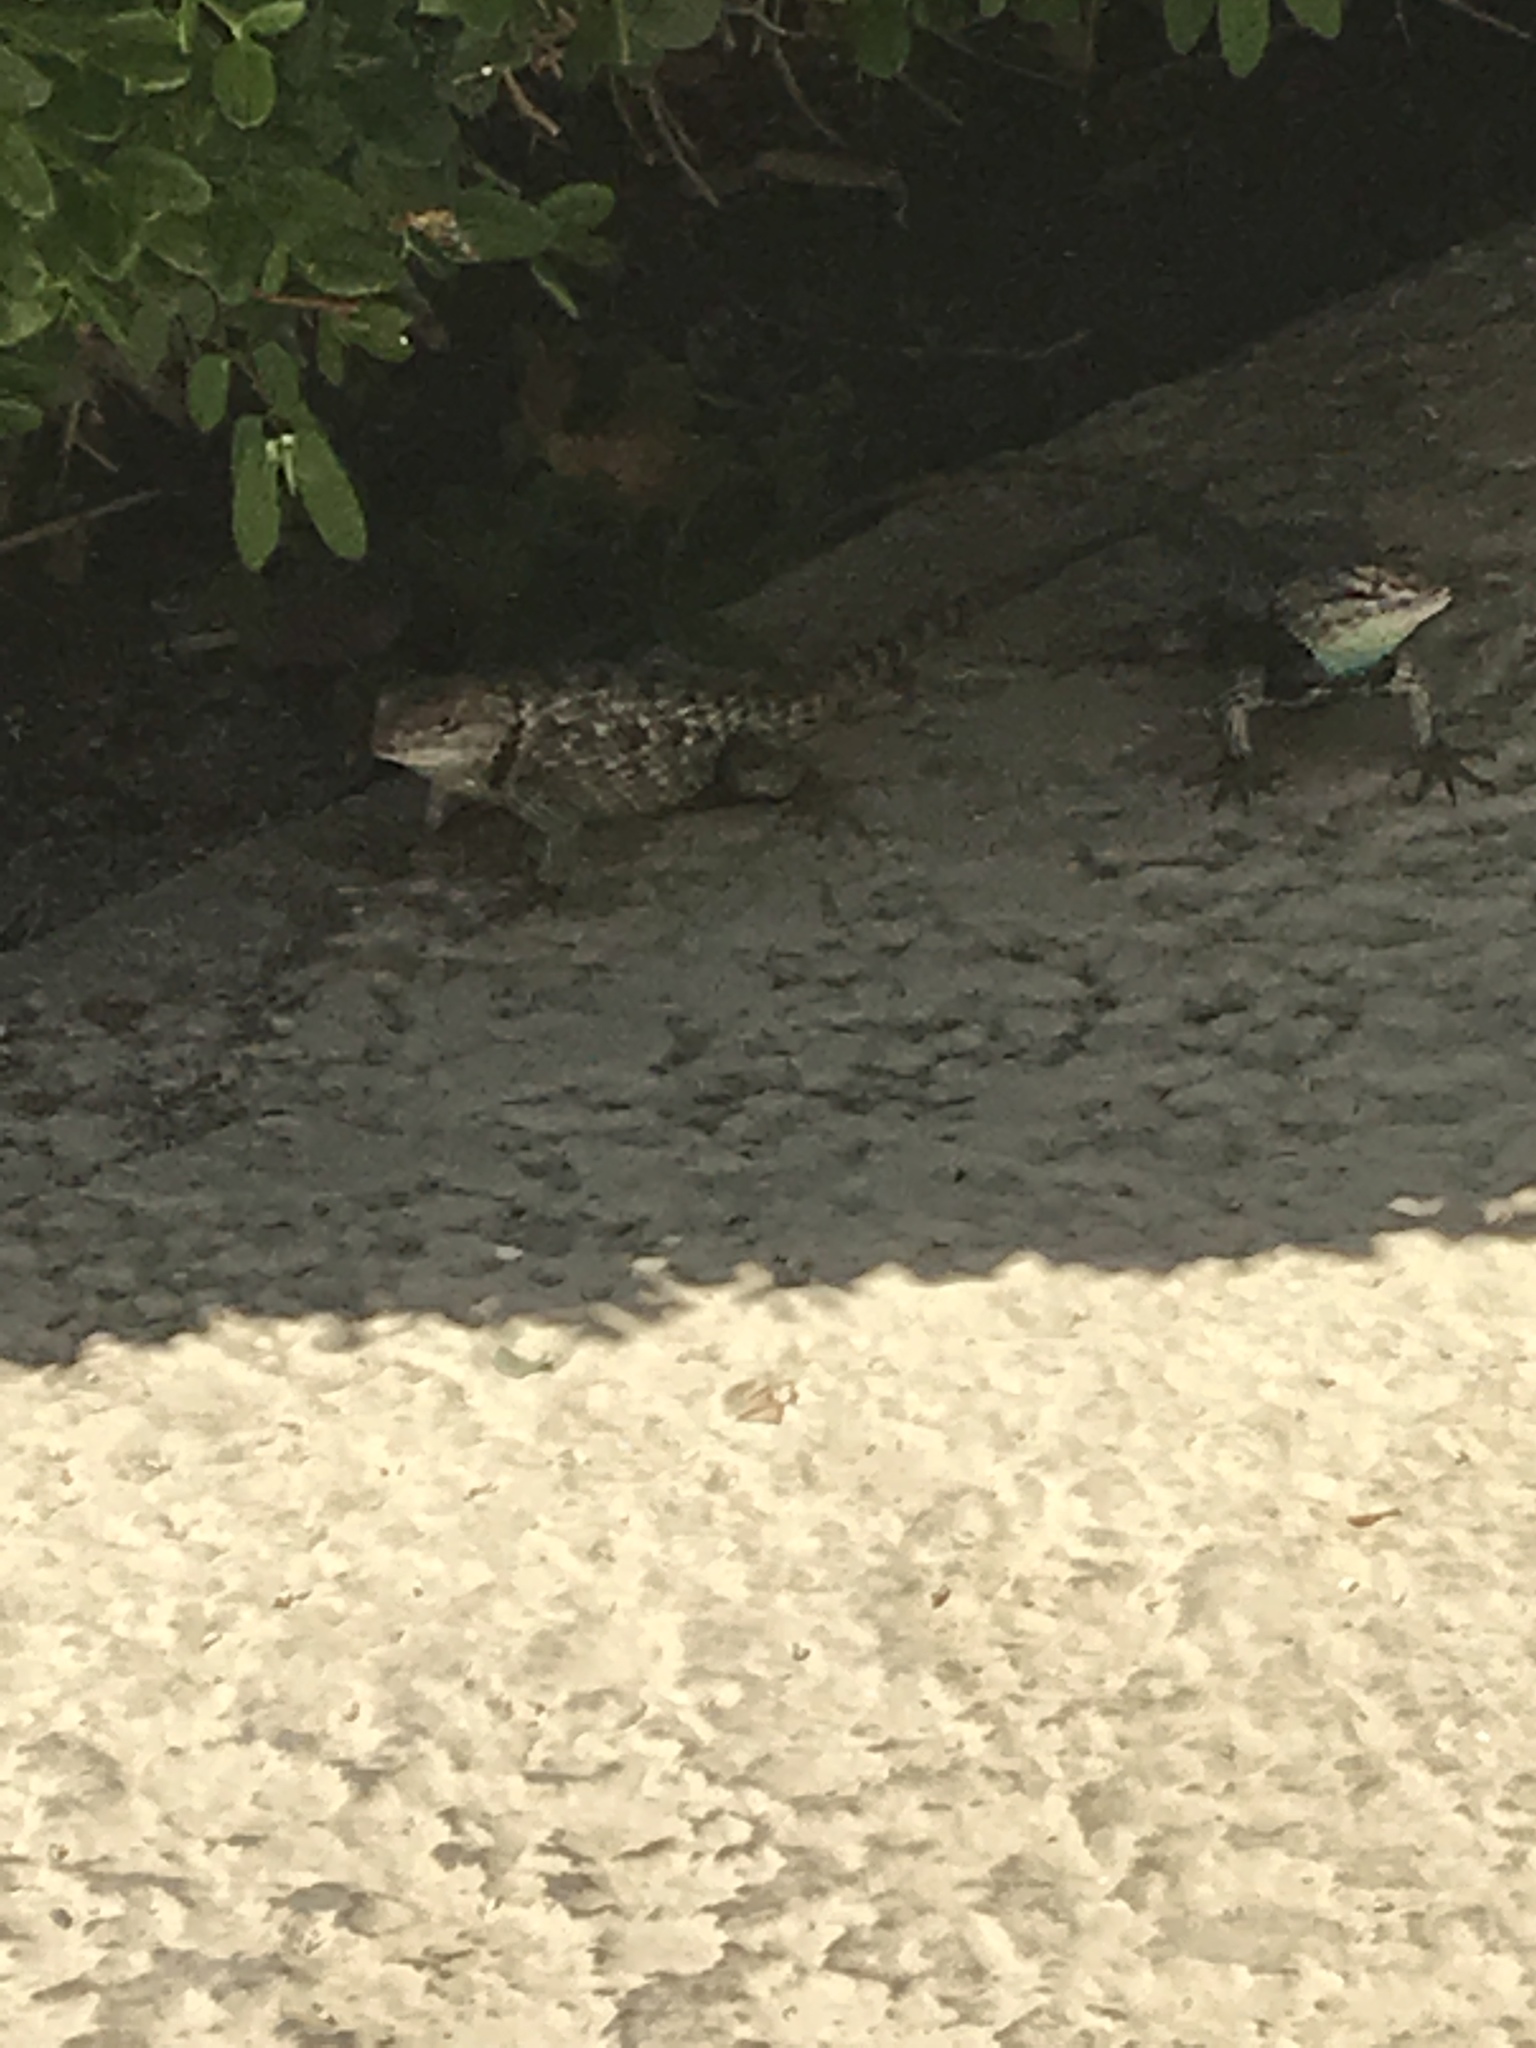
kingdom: Animalia
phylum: Chordata
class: Squamata
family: Phrynosomatidae
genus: Sceloporus
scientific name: Sceloporus magister
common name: Desert spiny lizard
